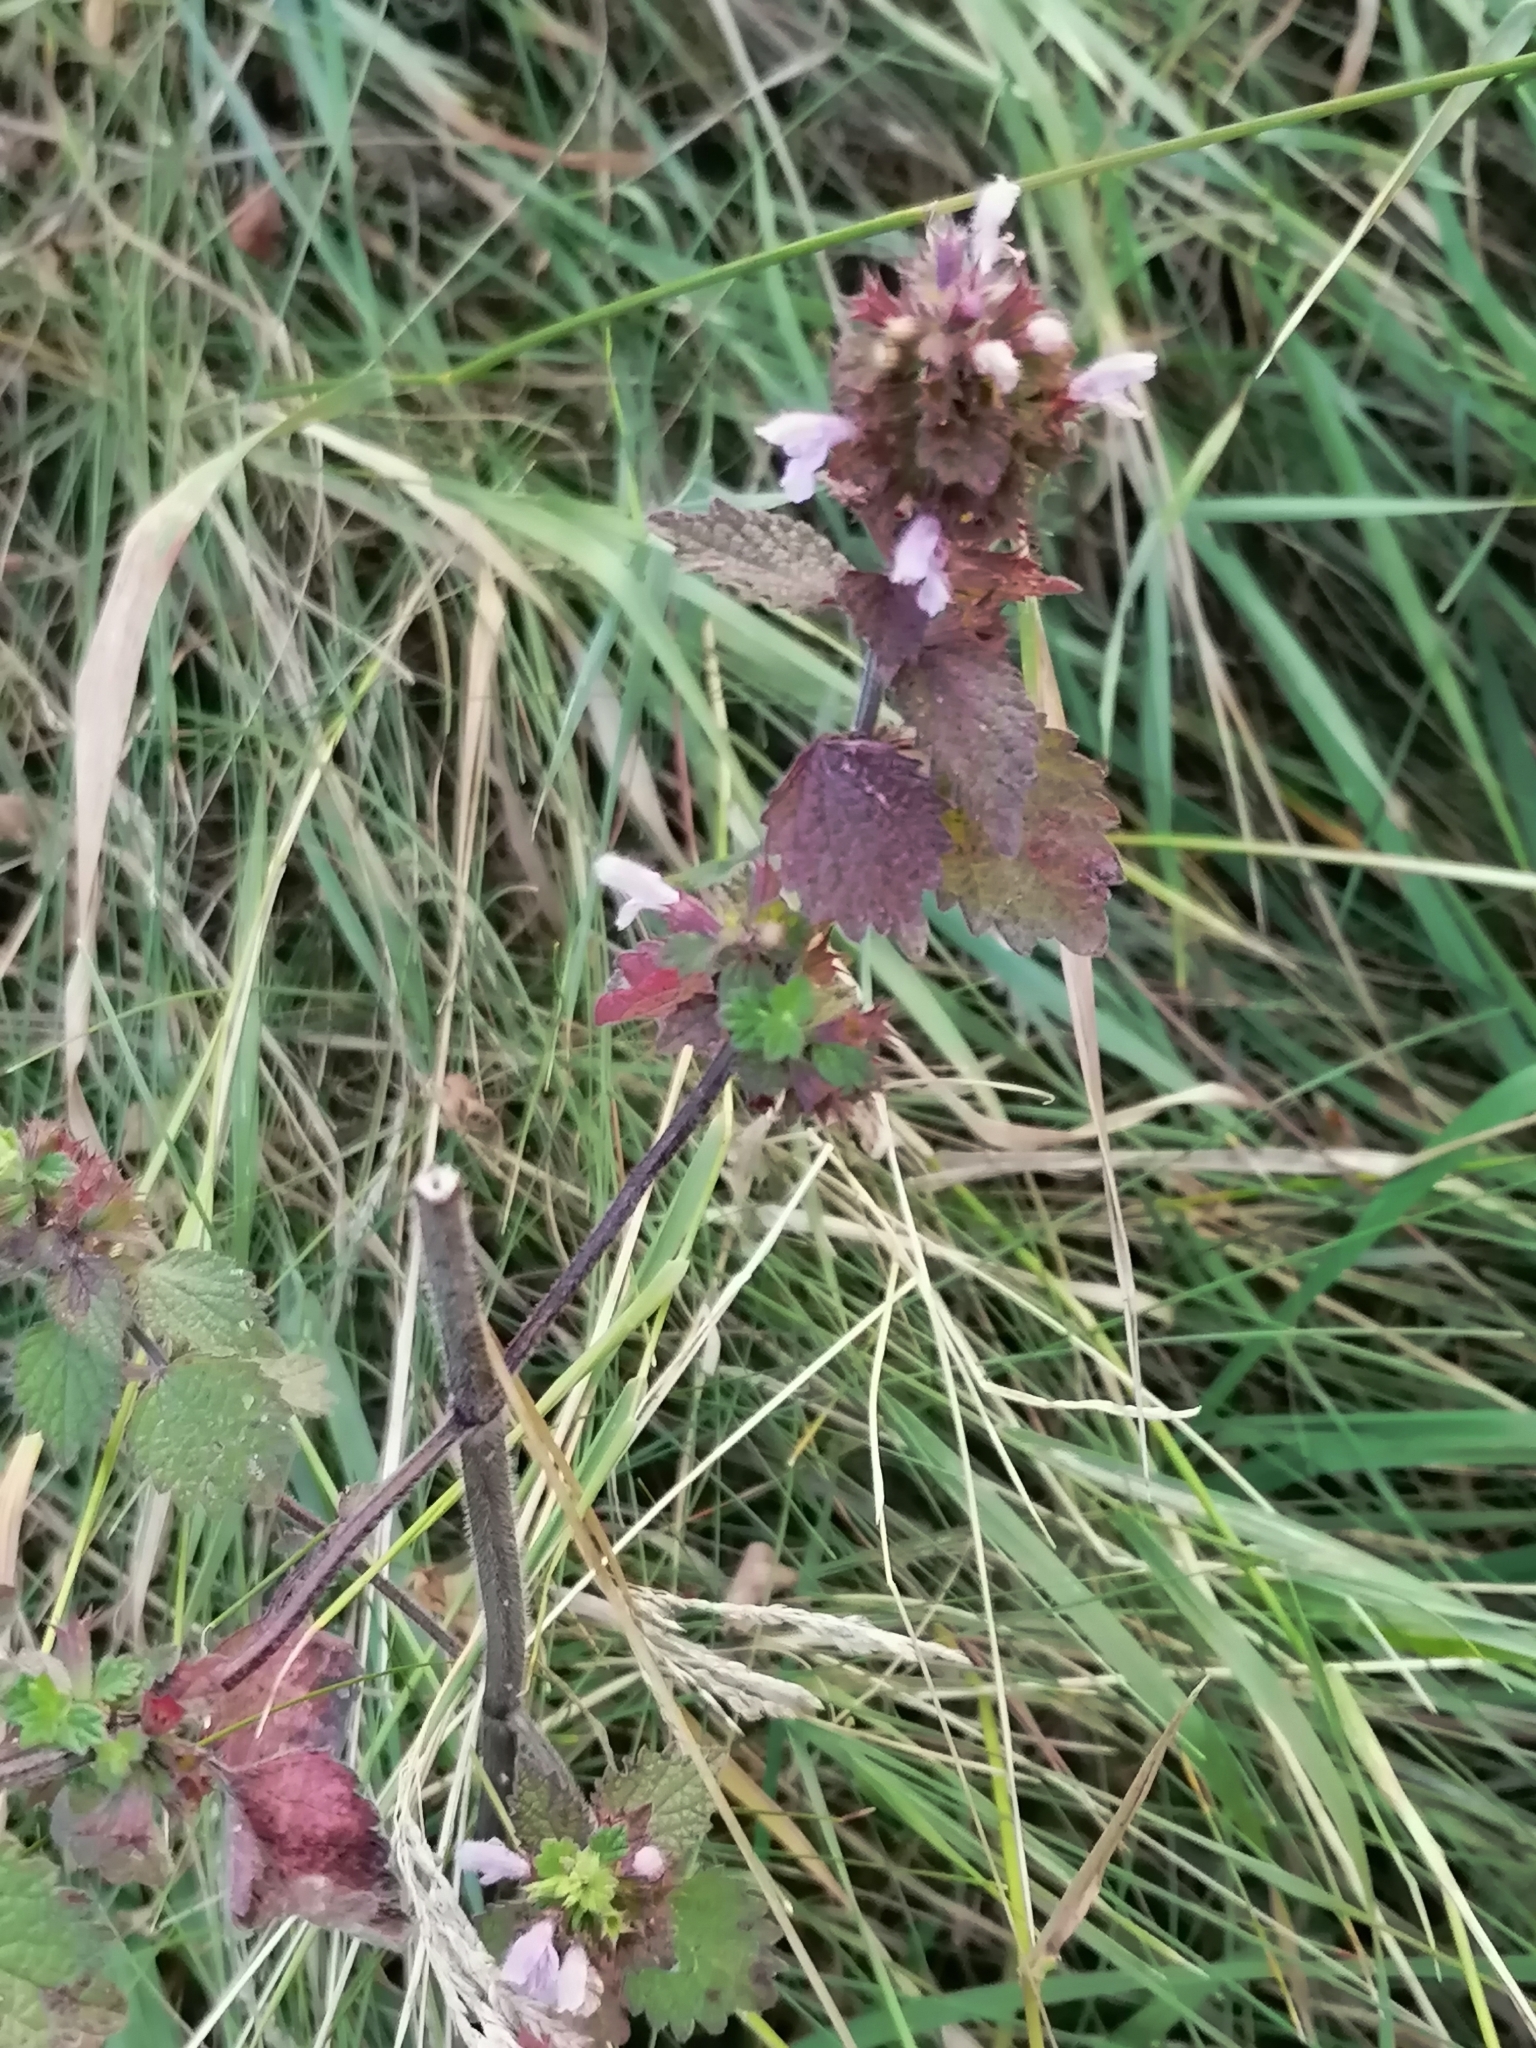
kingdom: Plantae
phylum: Tracheophyta
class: Magnoliopsida
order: Lamiales
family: Lamiaceae
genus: Ballota
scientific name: Ballota nigra
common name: Black horehound
